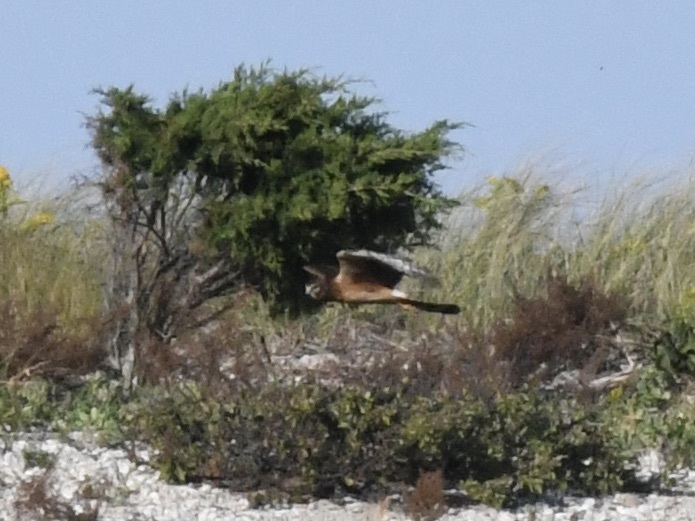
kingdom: Animalia
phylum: Chordata
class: Aves
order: Accipitriformes
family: Accipitridae
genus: Circus
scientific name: Circus cyaneus
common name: Hen harrier
